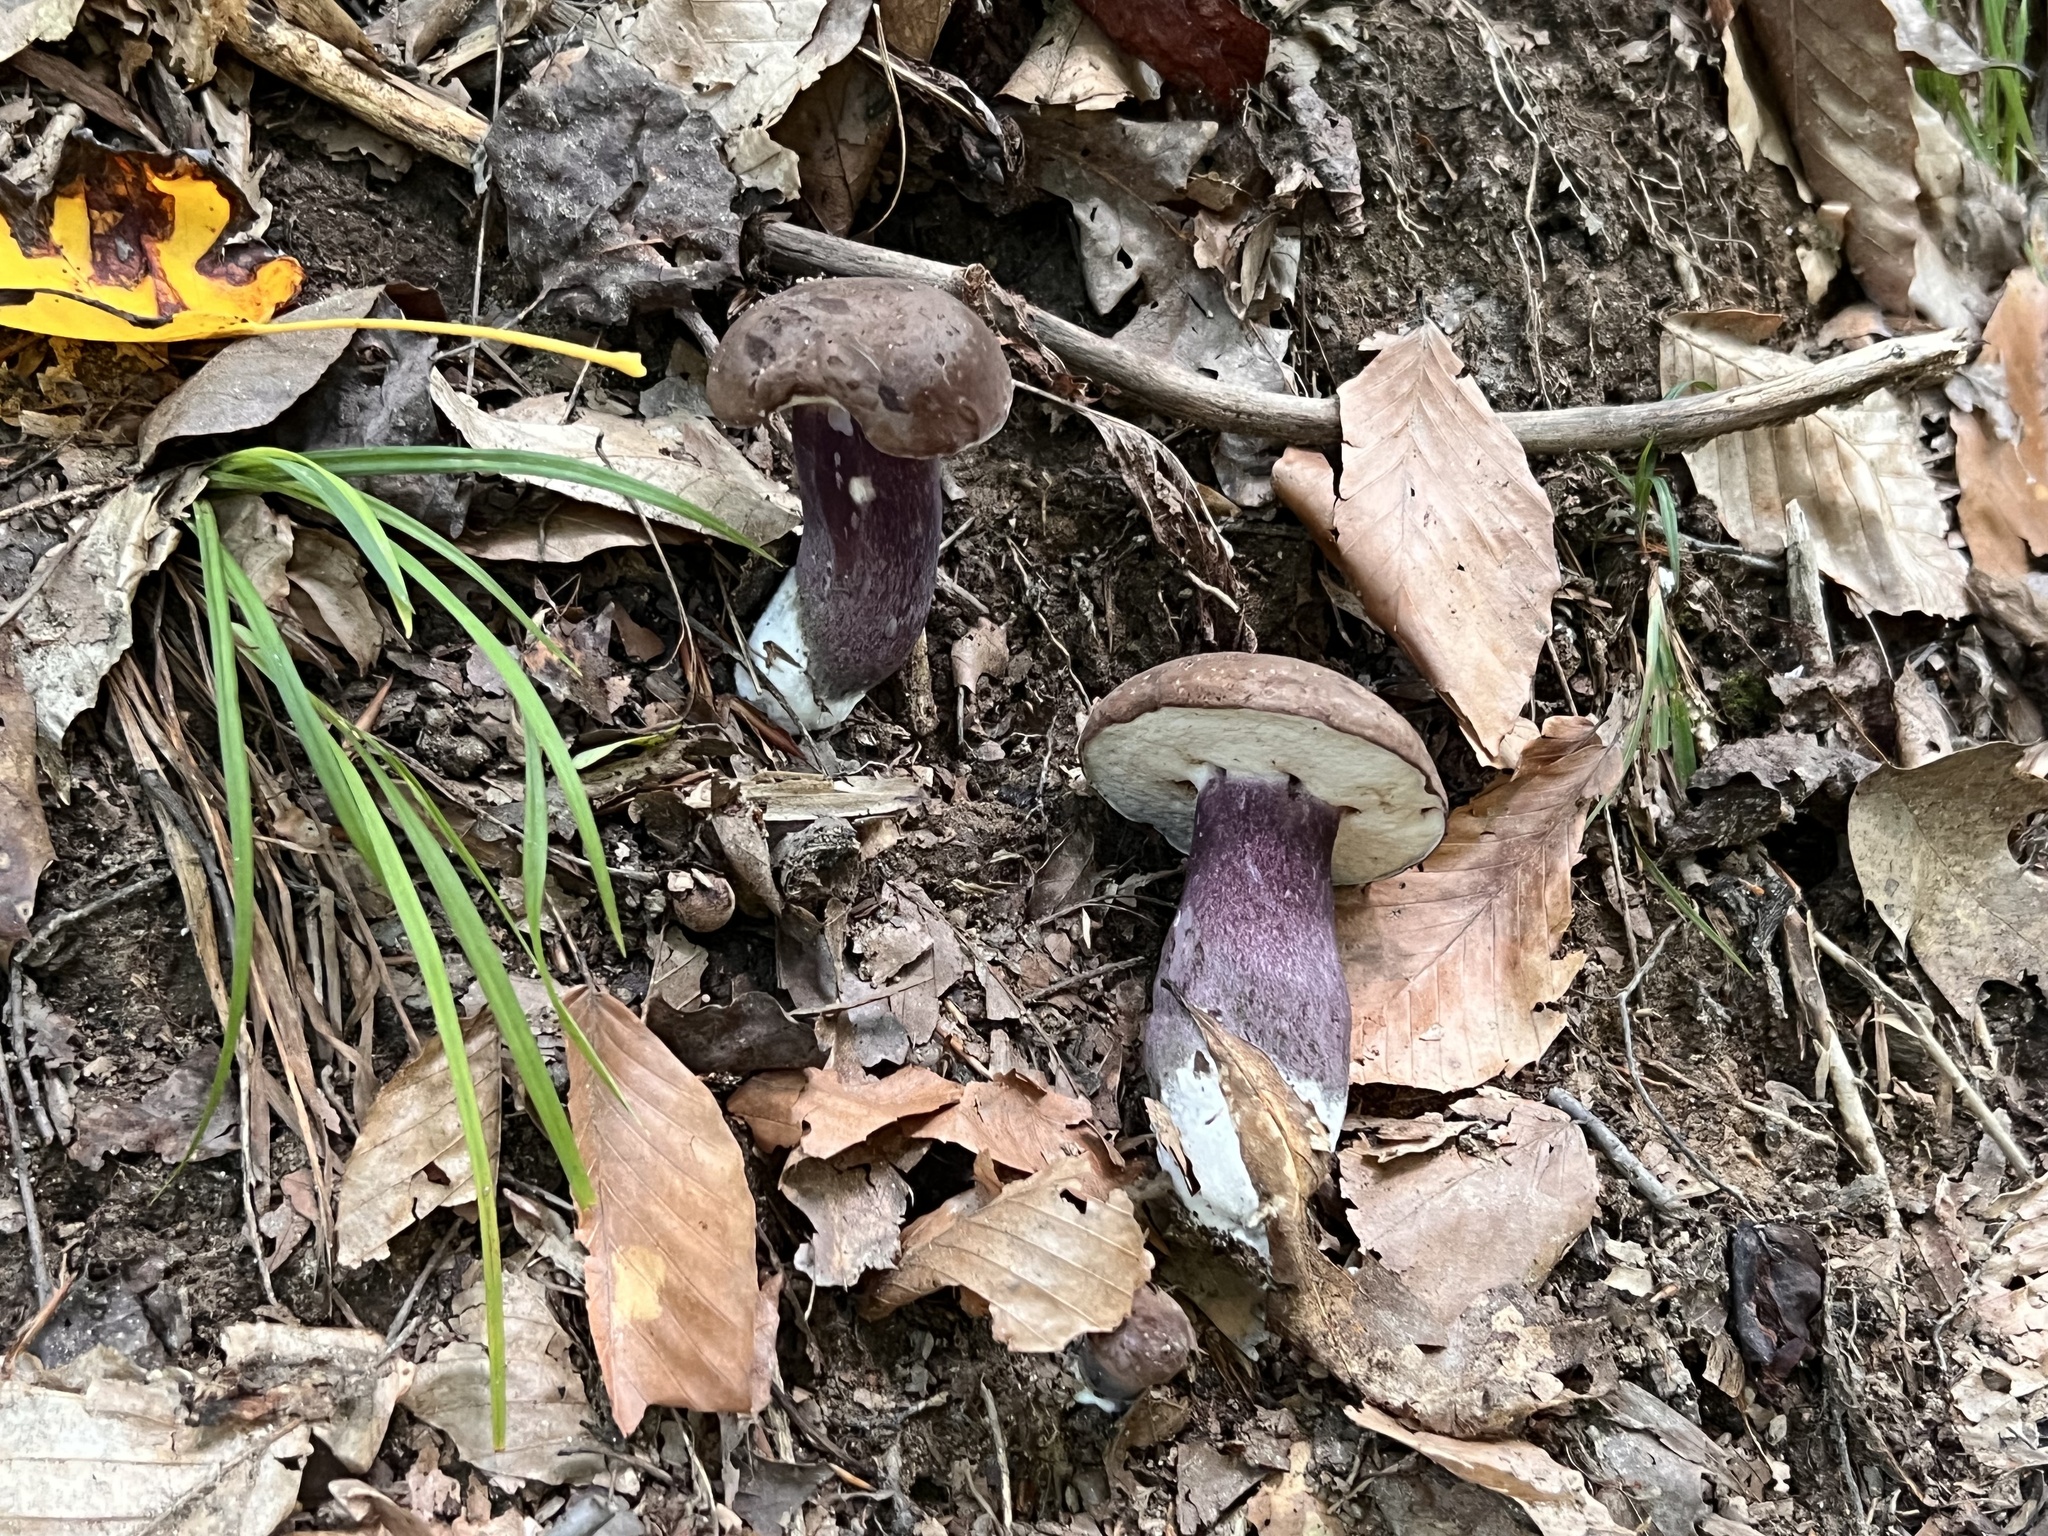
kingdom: Fungi
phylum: Basidiomycota
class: Agaricomycetes
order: Boletales
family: Boletaceae
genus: Tylopilus
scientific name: Tylopilus plumbeoviolaceus
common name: Violet gray bolete
